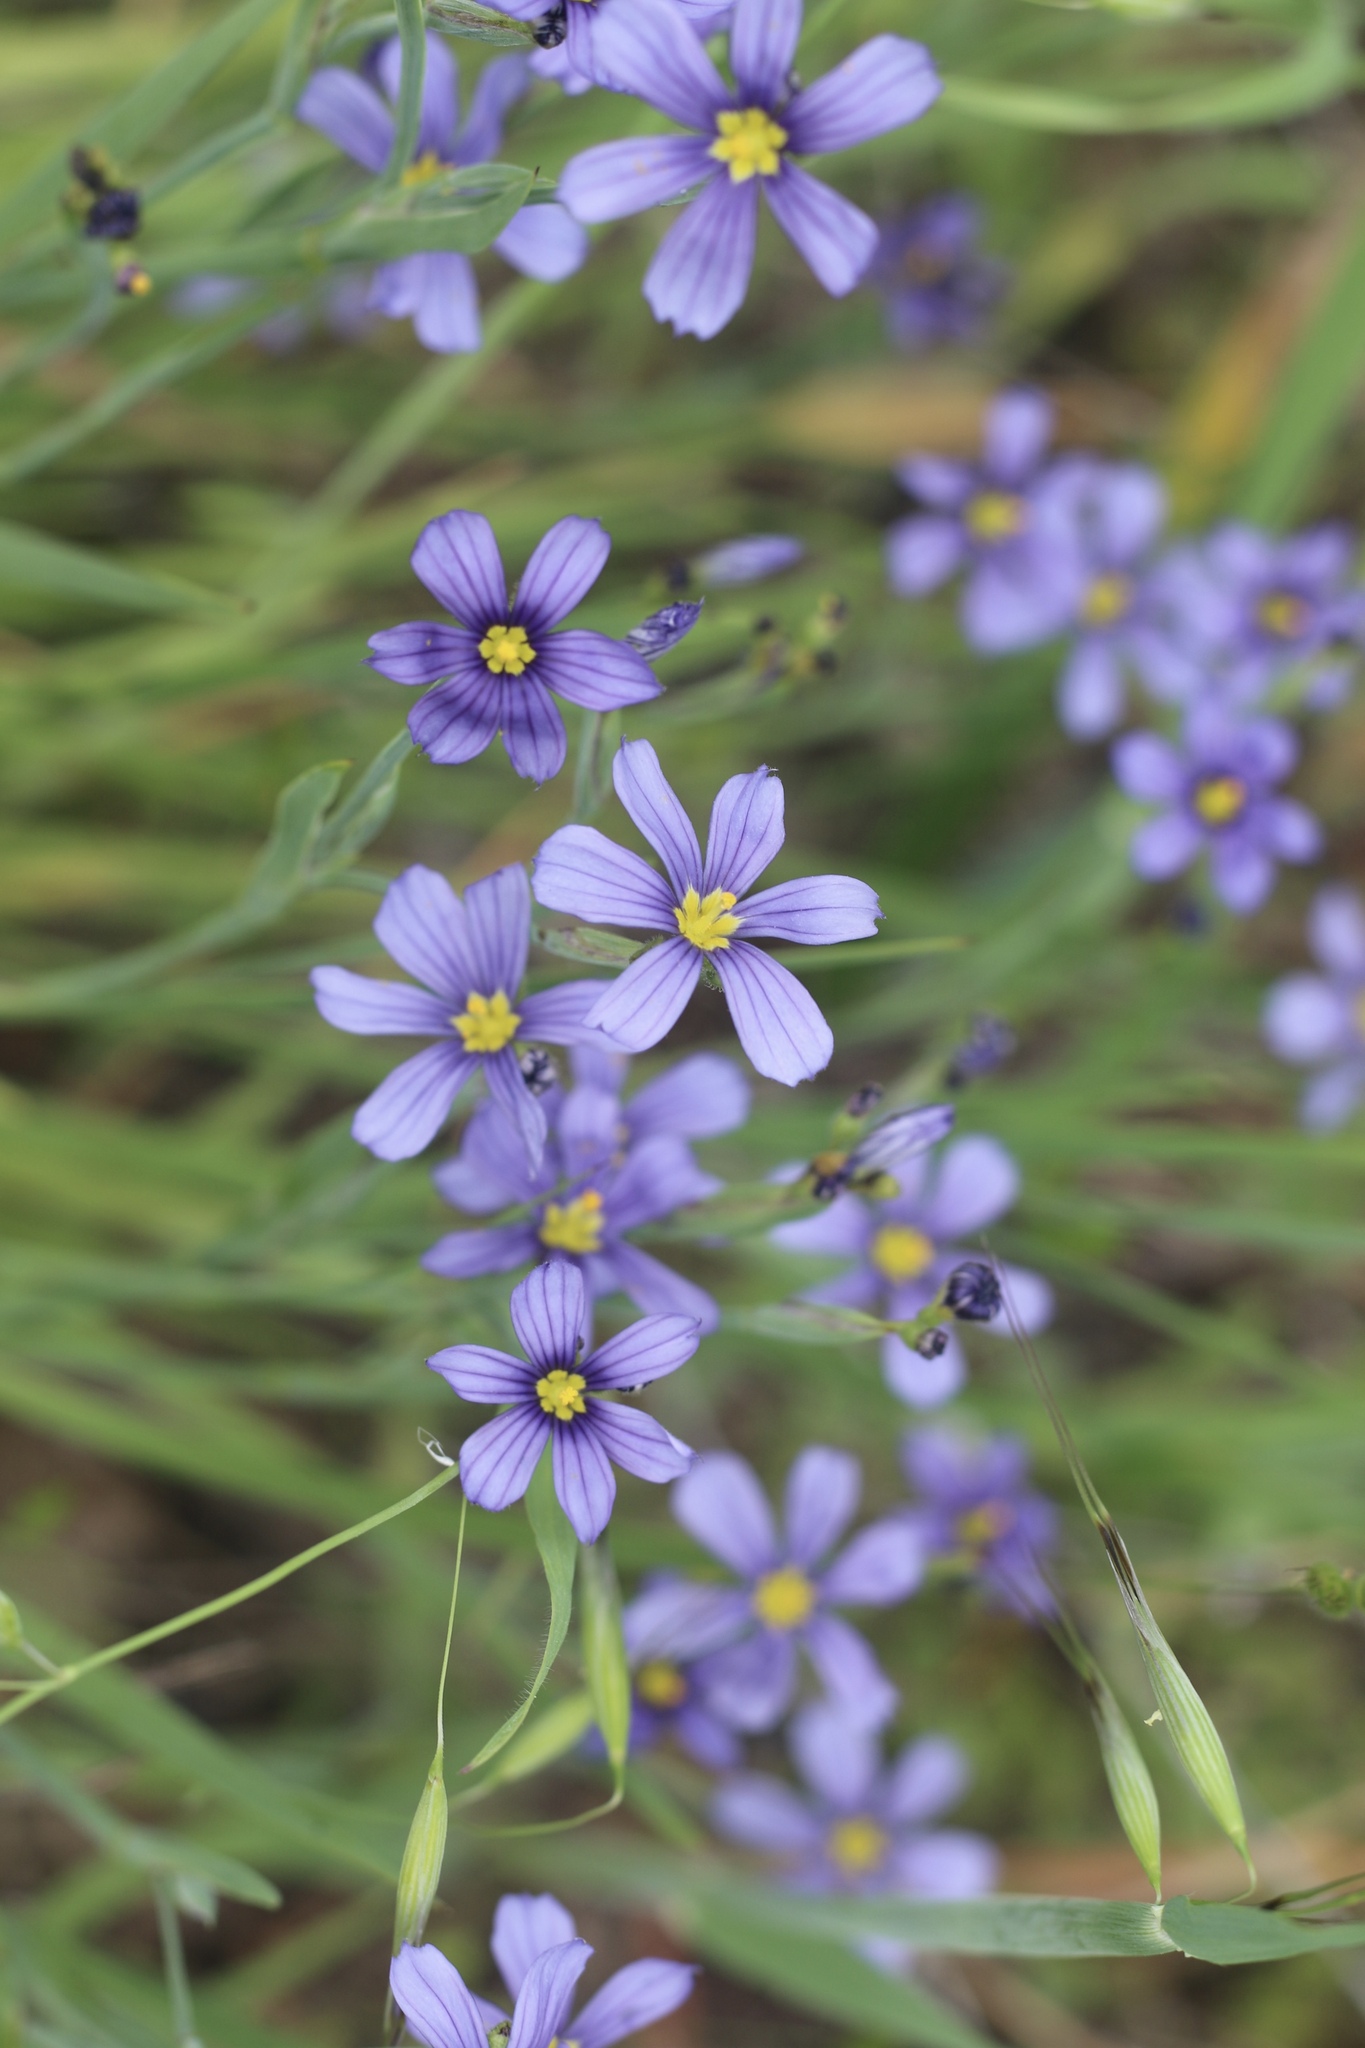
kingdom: Plantae
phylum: Tracheophyta
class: Liliopsida
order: Asparagales
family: Iridaceae
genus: Sisyrinchium
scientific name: Sisyrinchium bellum
